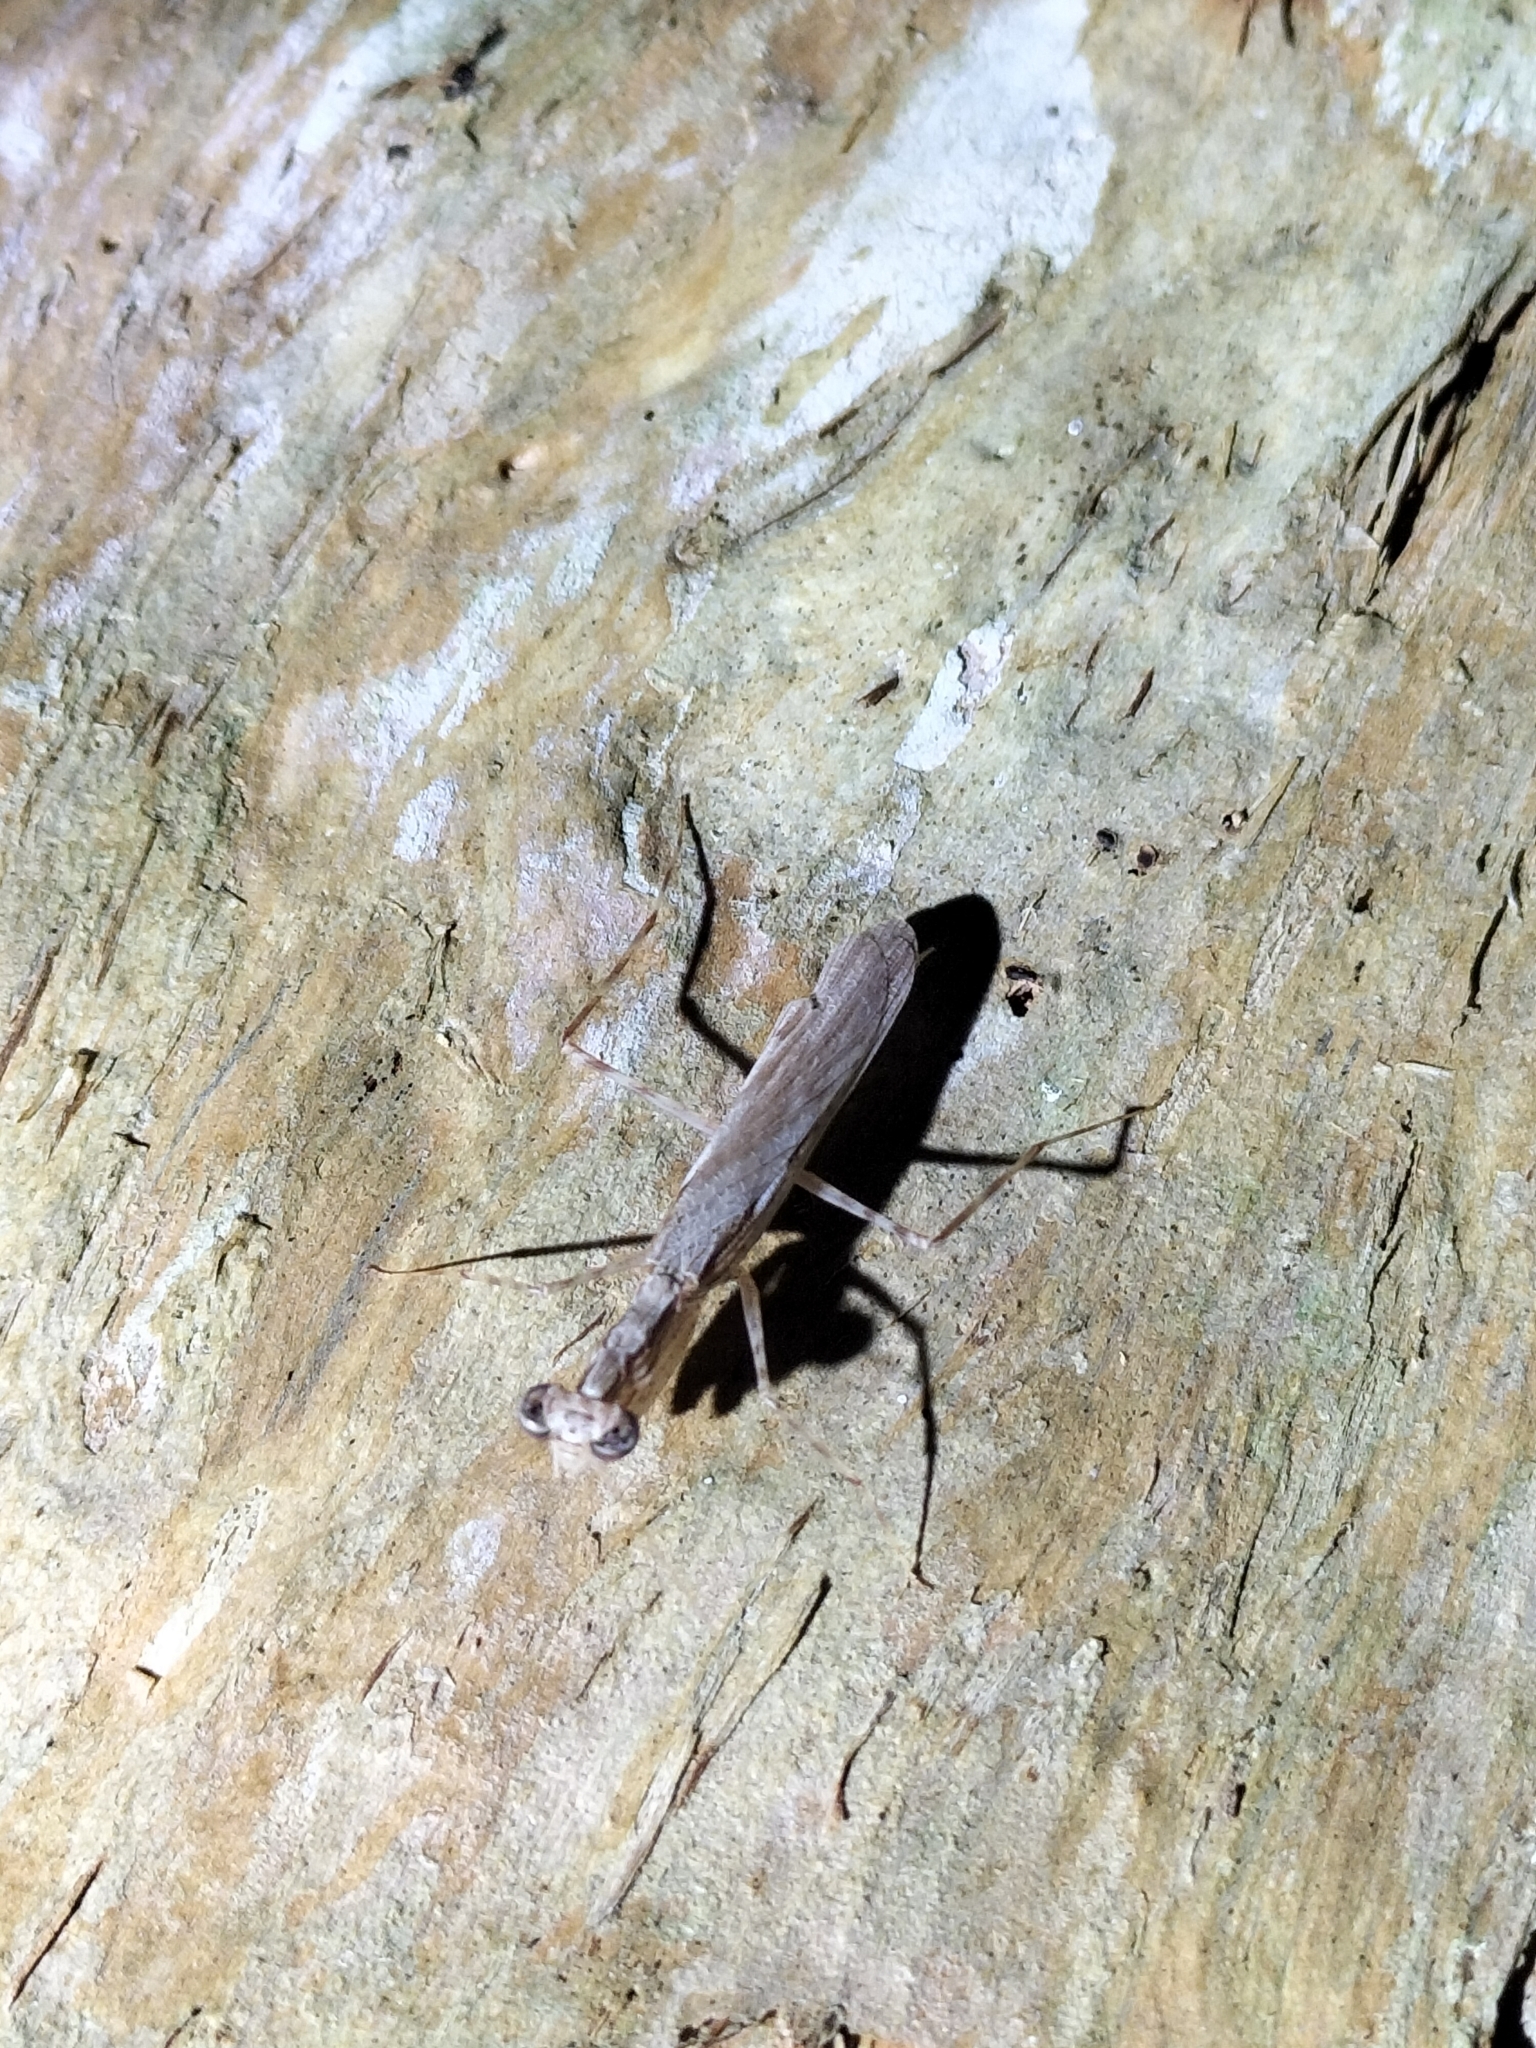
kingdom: Animalia
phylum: Arthropoda
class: Insecta
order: Mantodea
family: Nanomantidae
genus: Ima
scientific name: Ima fusca
